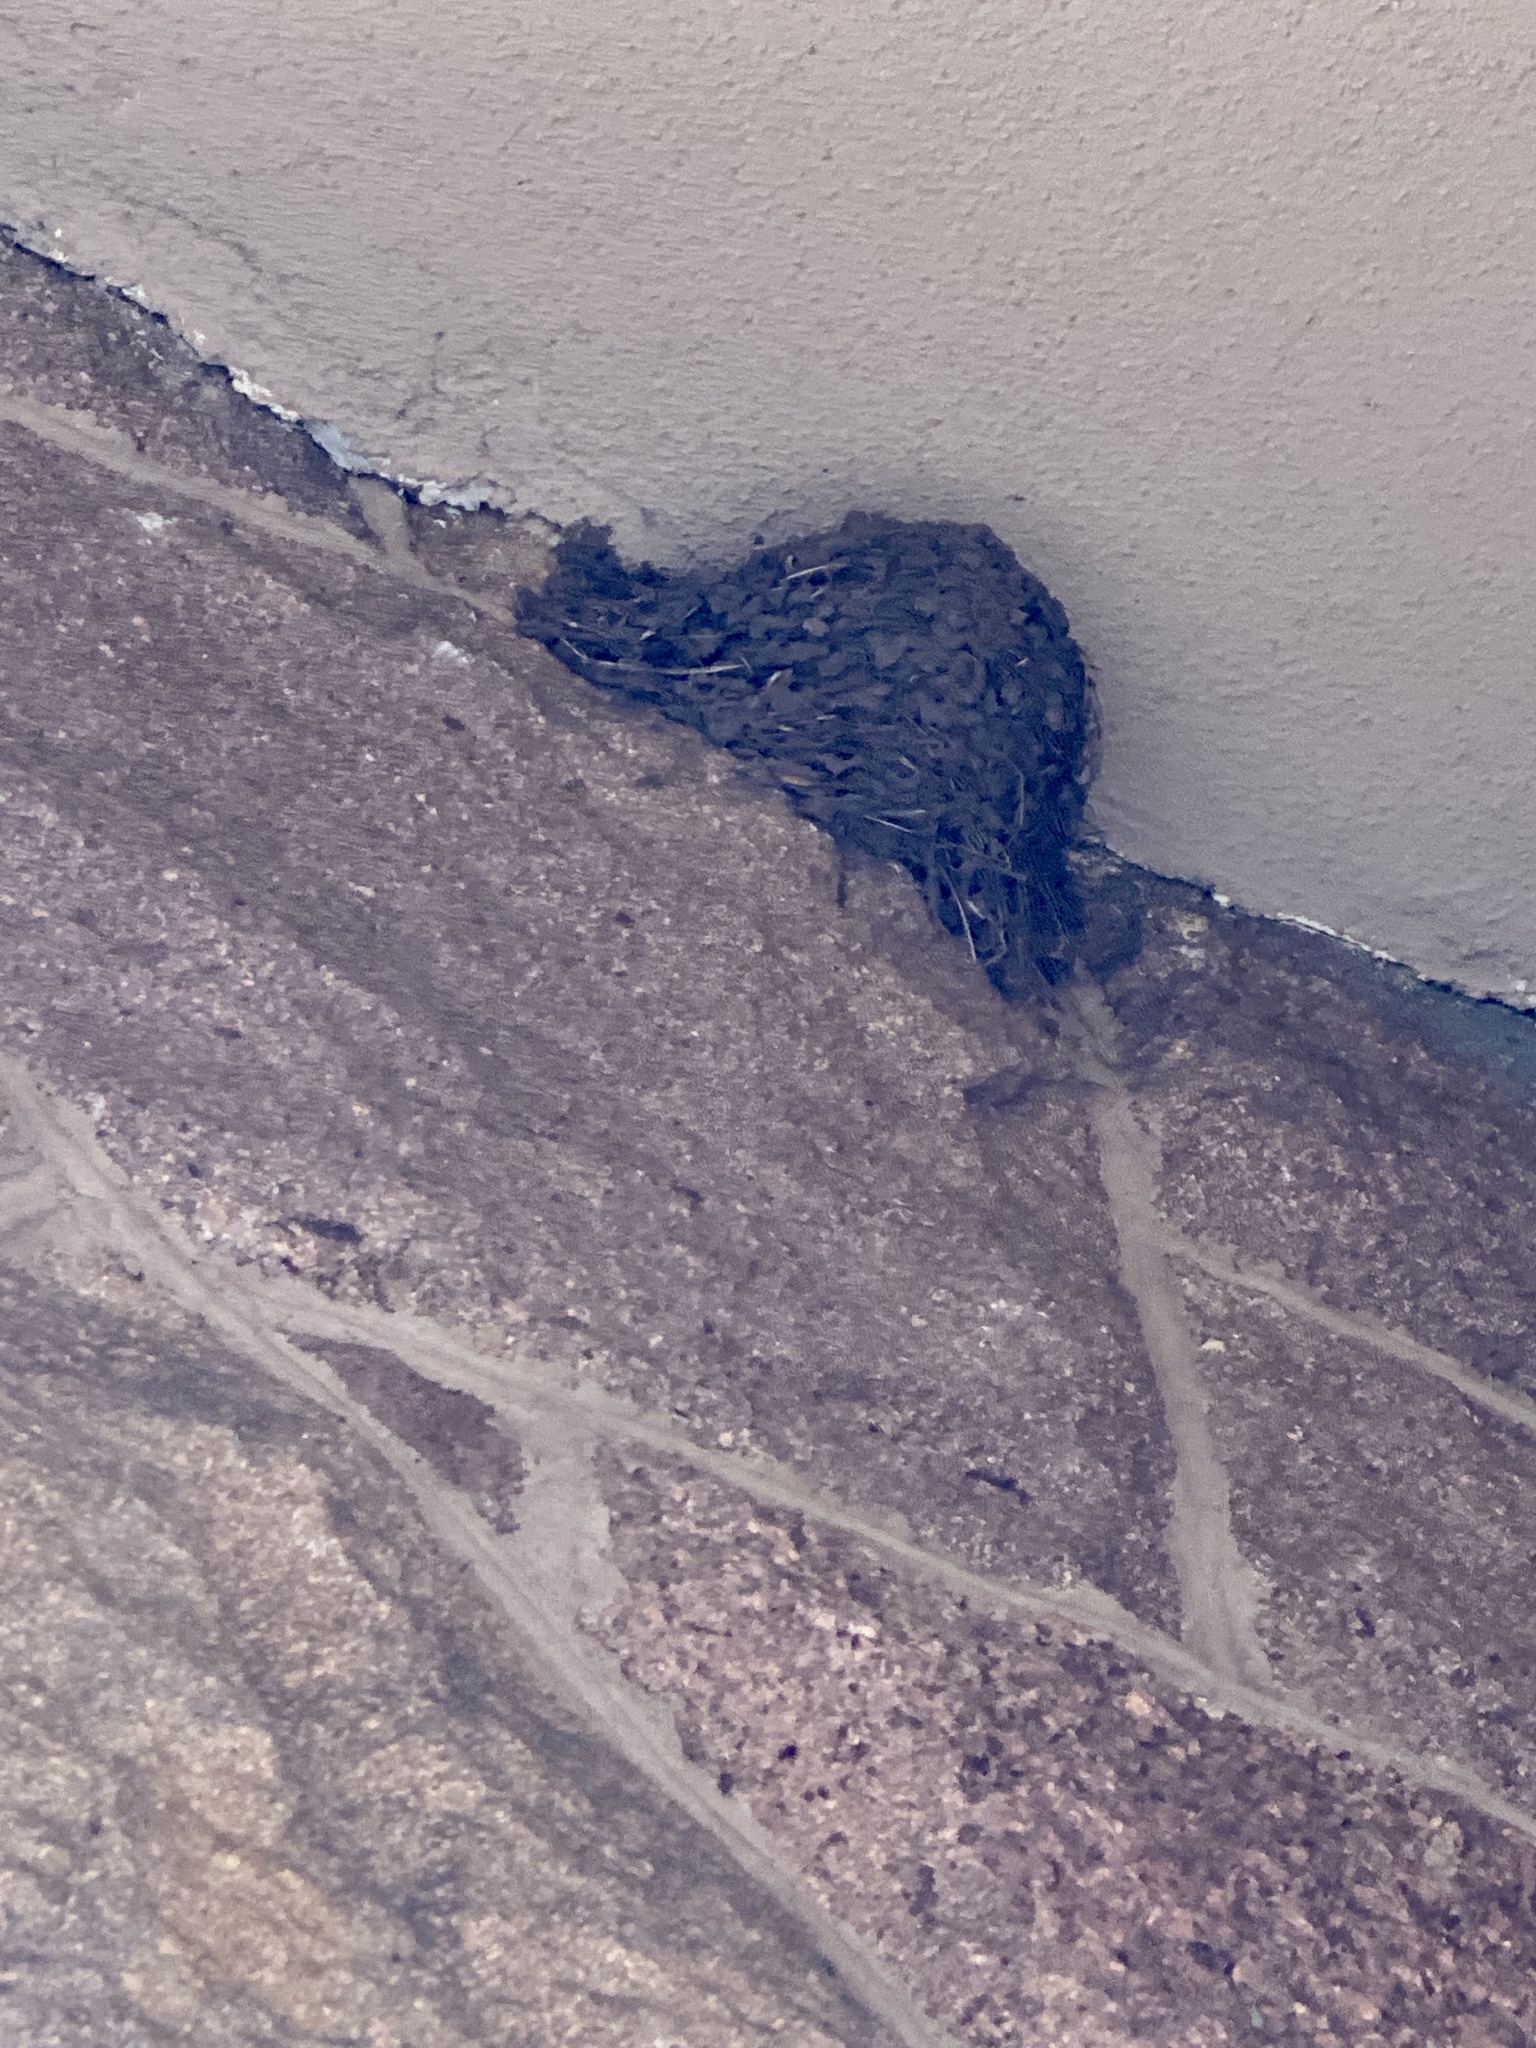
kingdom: Animalia
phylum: Chordata
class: Aves
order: Passeriformes
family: Hirundinidae
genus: Hirundo
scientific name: Hirundo rustica
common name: Barn swallow
